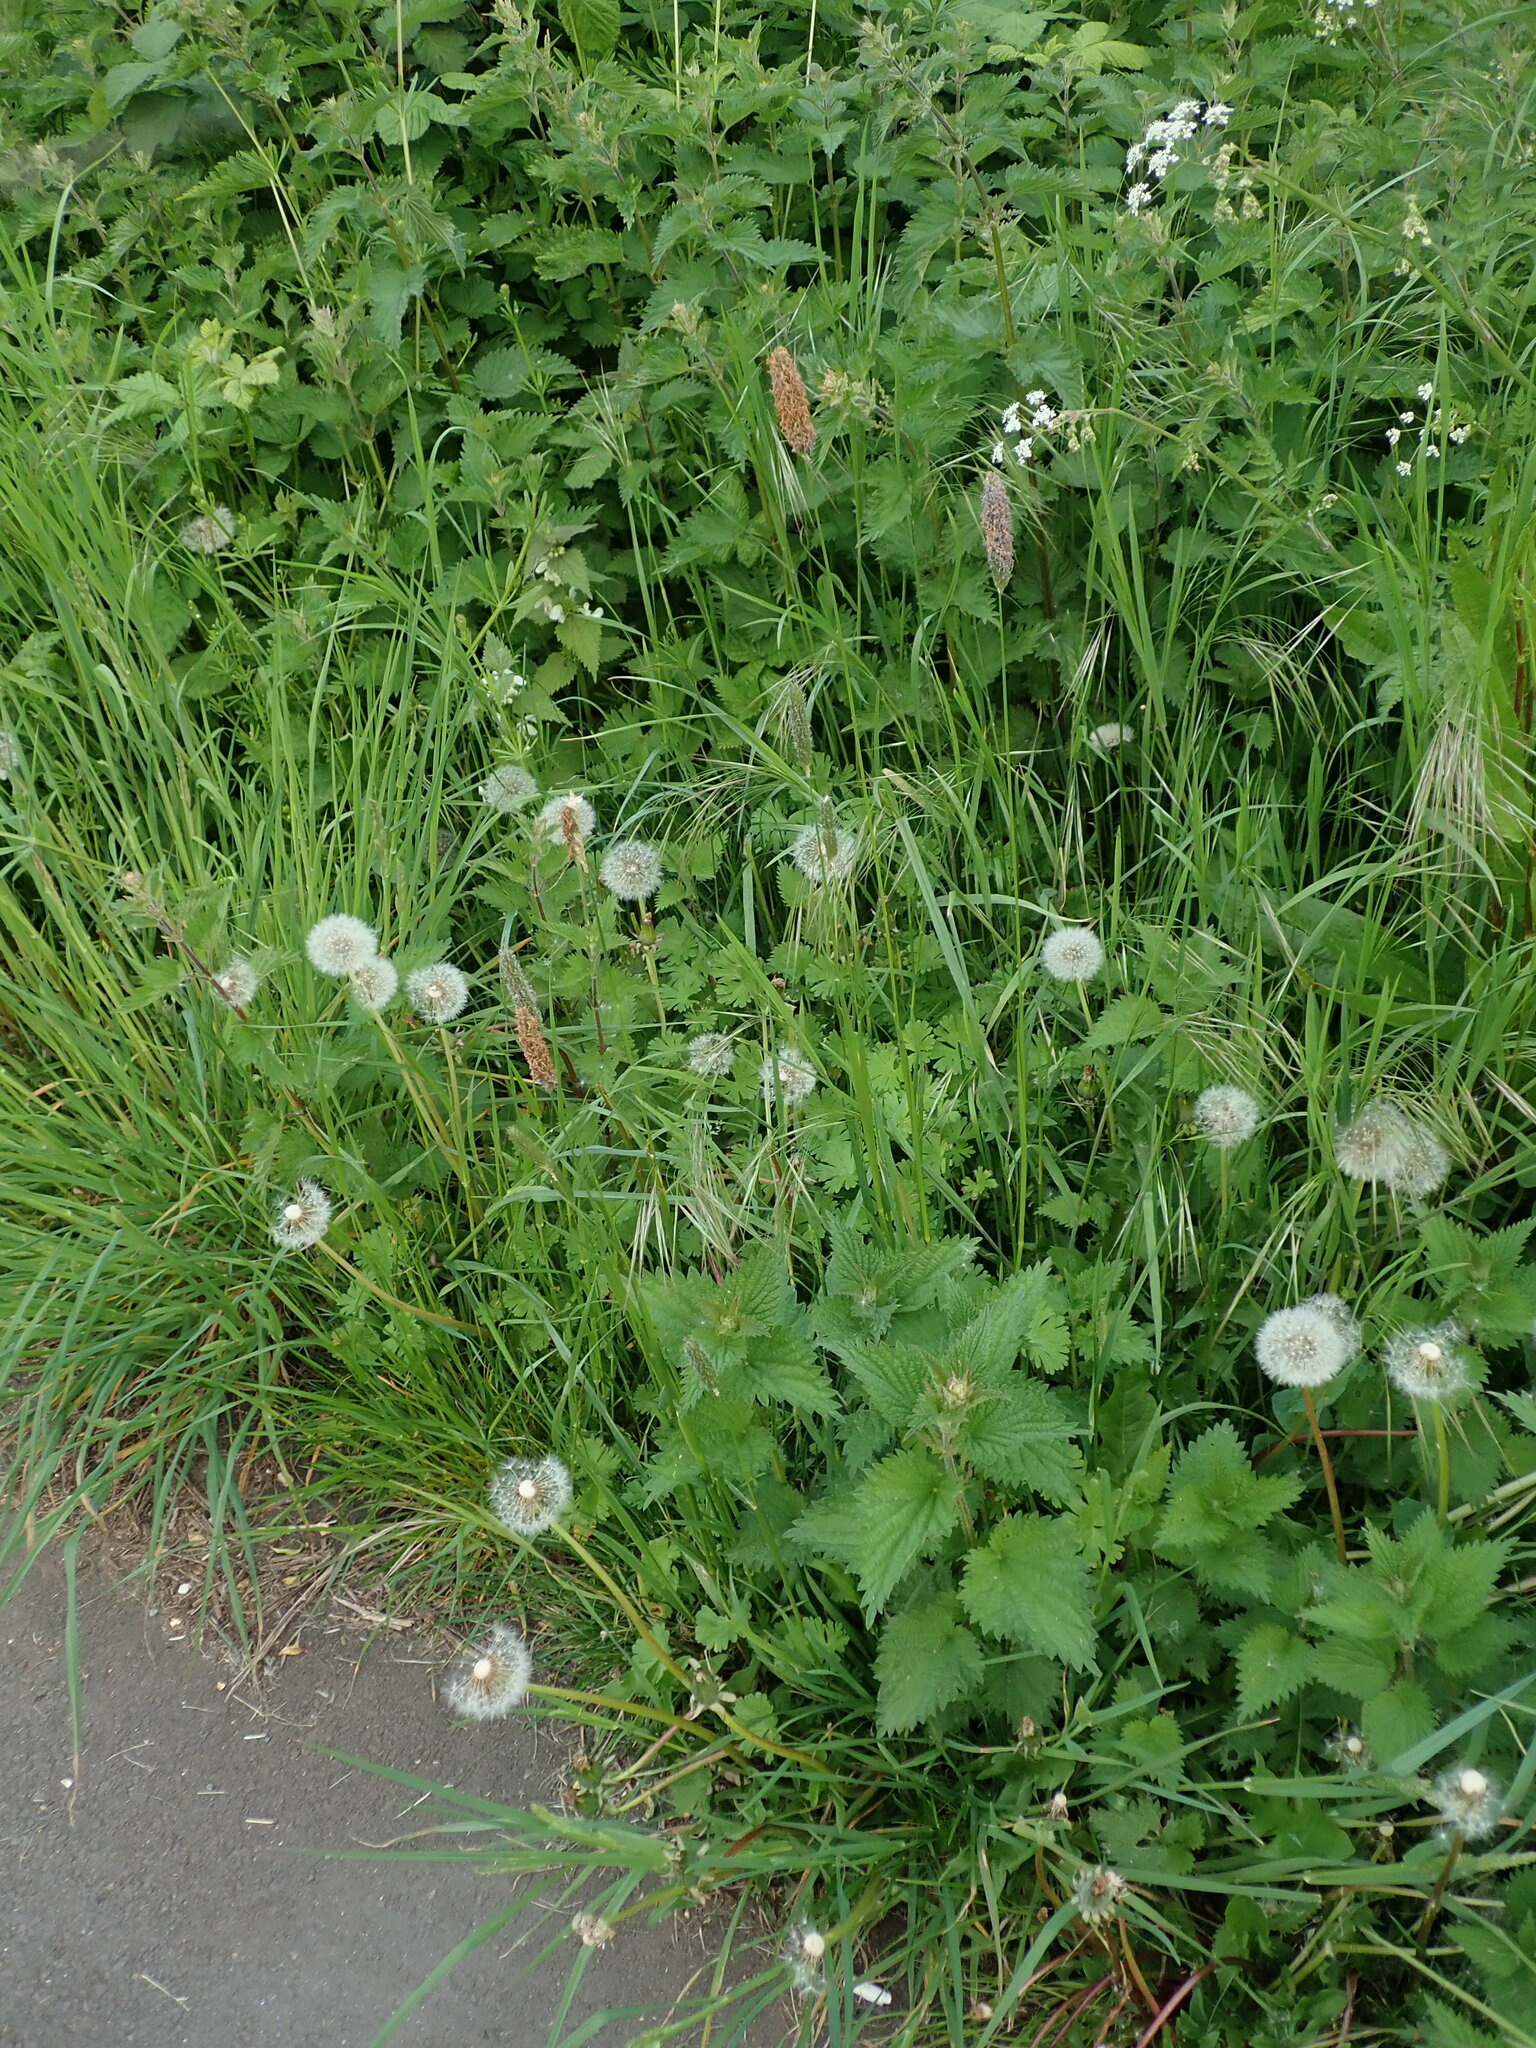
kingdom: Plantae
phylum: Tracheophyta
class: Liliopsida
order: Poales
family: Poaceae
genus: Alopecurus
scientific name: Alopecurus pratensis
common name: Meadow foxtail
